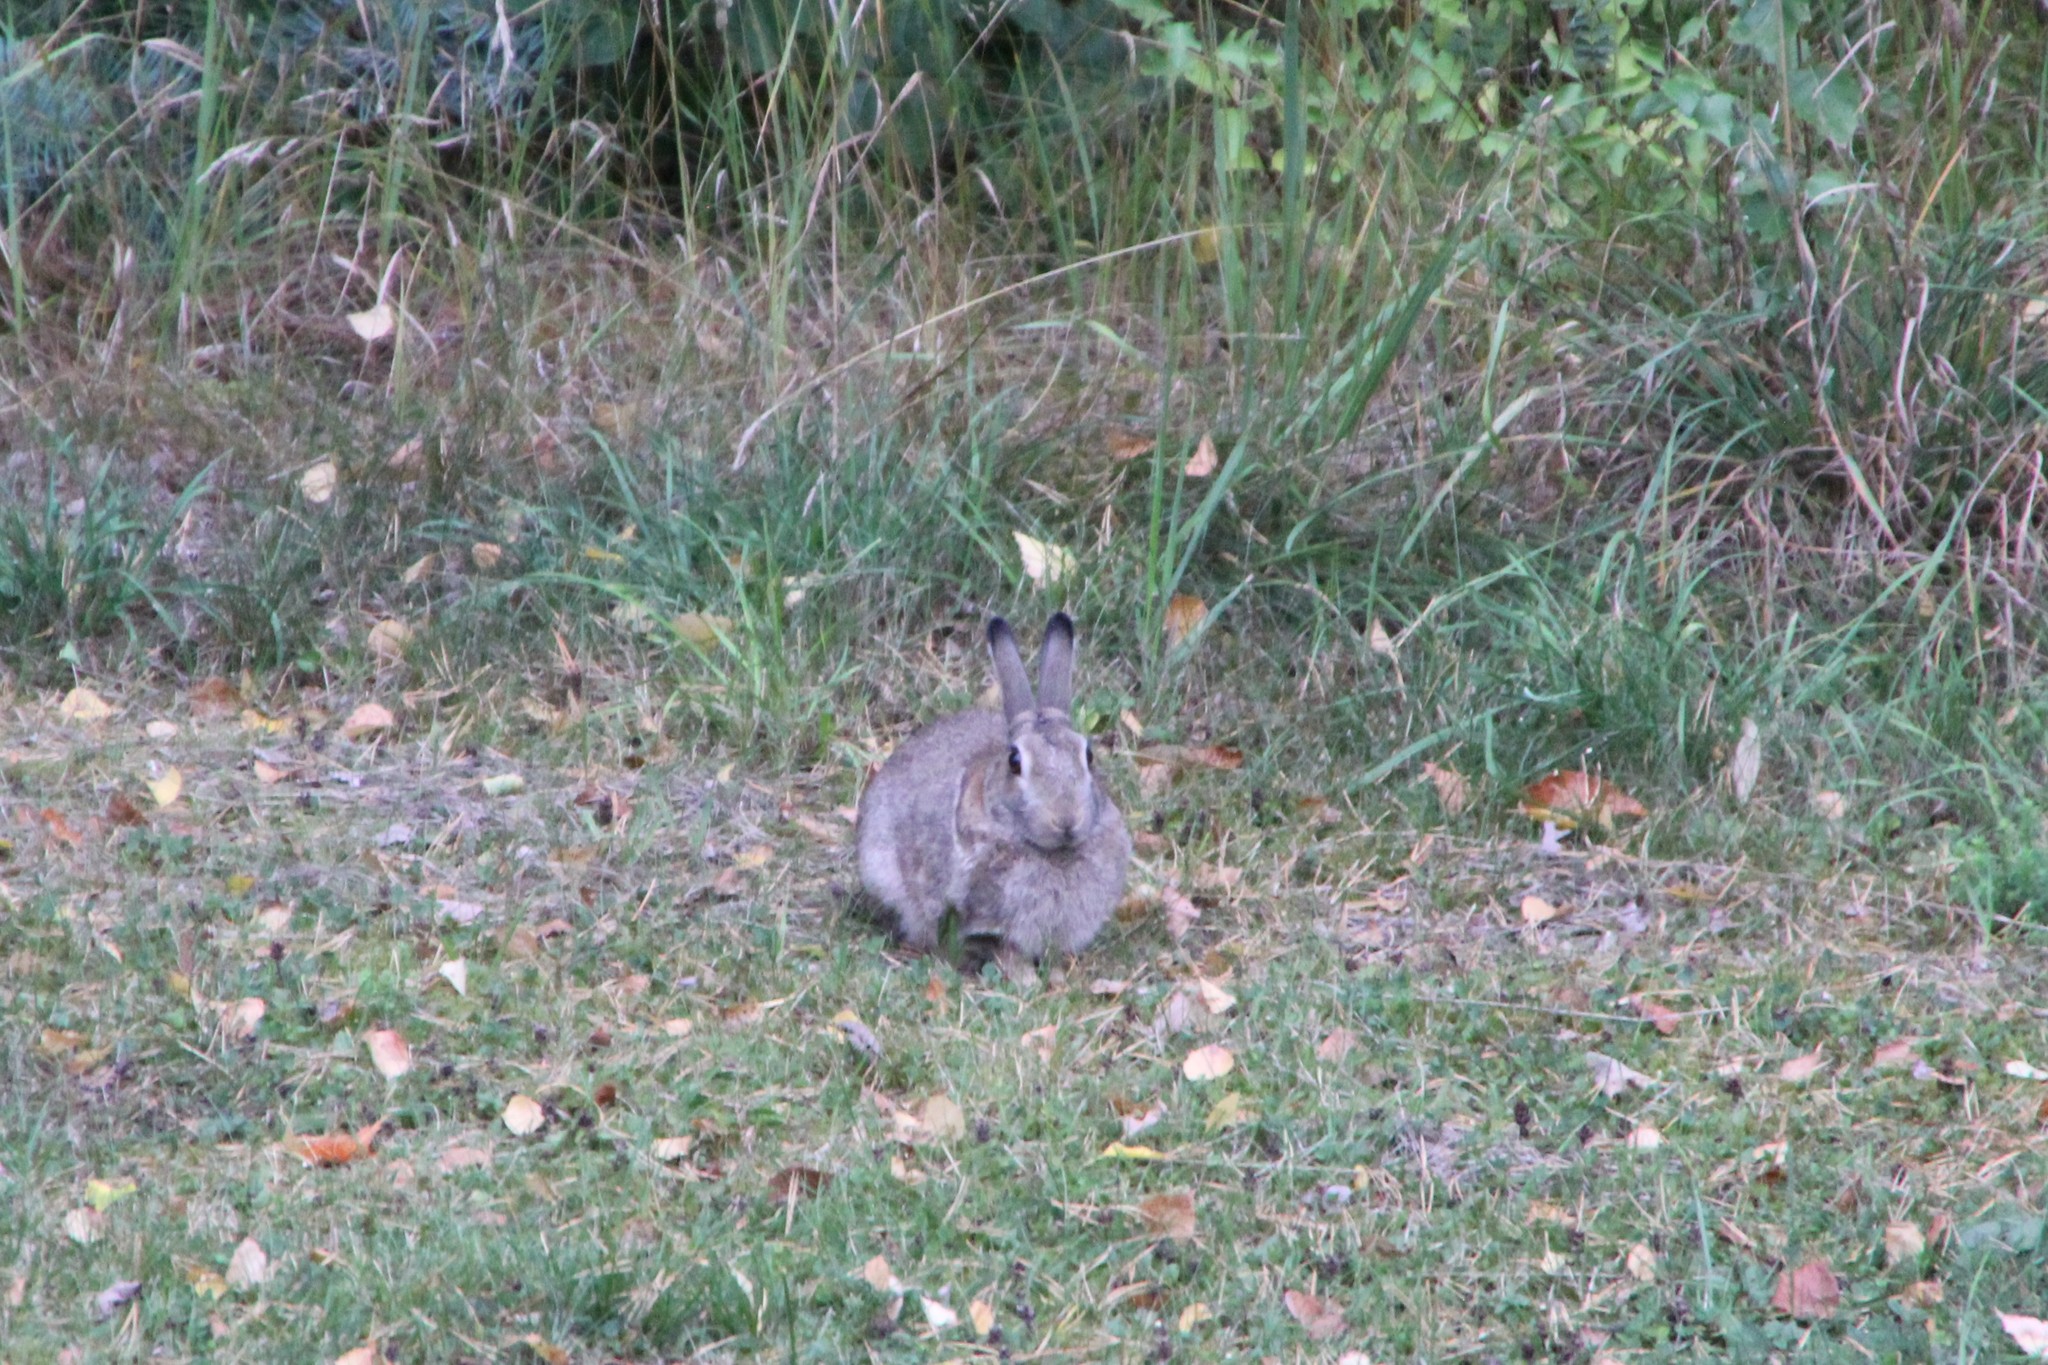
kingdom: Animalia
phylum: Chordata
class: Mammalia
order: Lagomorpha
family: Leporidae
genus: Oryctolagus
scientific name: Oryctolagus cuniculus
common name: European rabbit
